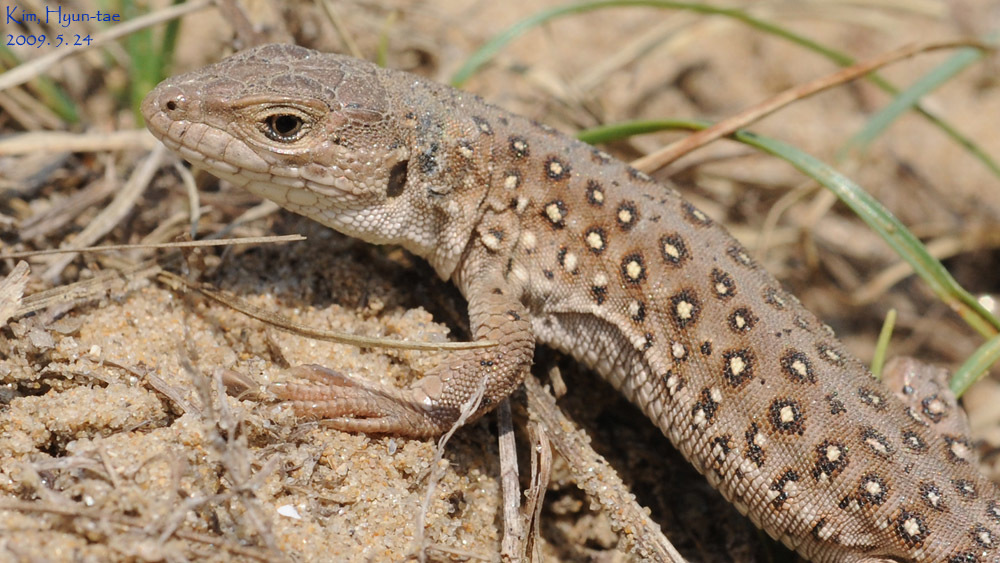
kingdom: Animalia
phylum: Chordata
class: Squamata
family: Lacertidae
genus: Eremias
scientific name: Eremias argus
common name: Mongolia racerunner
